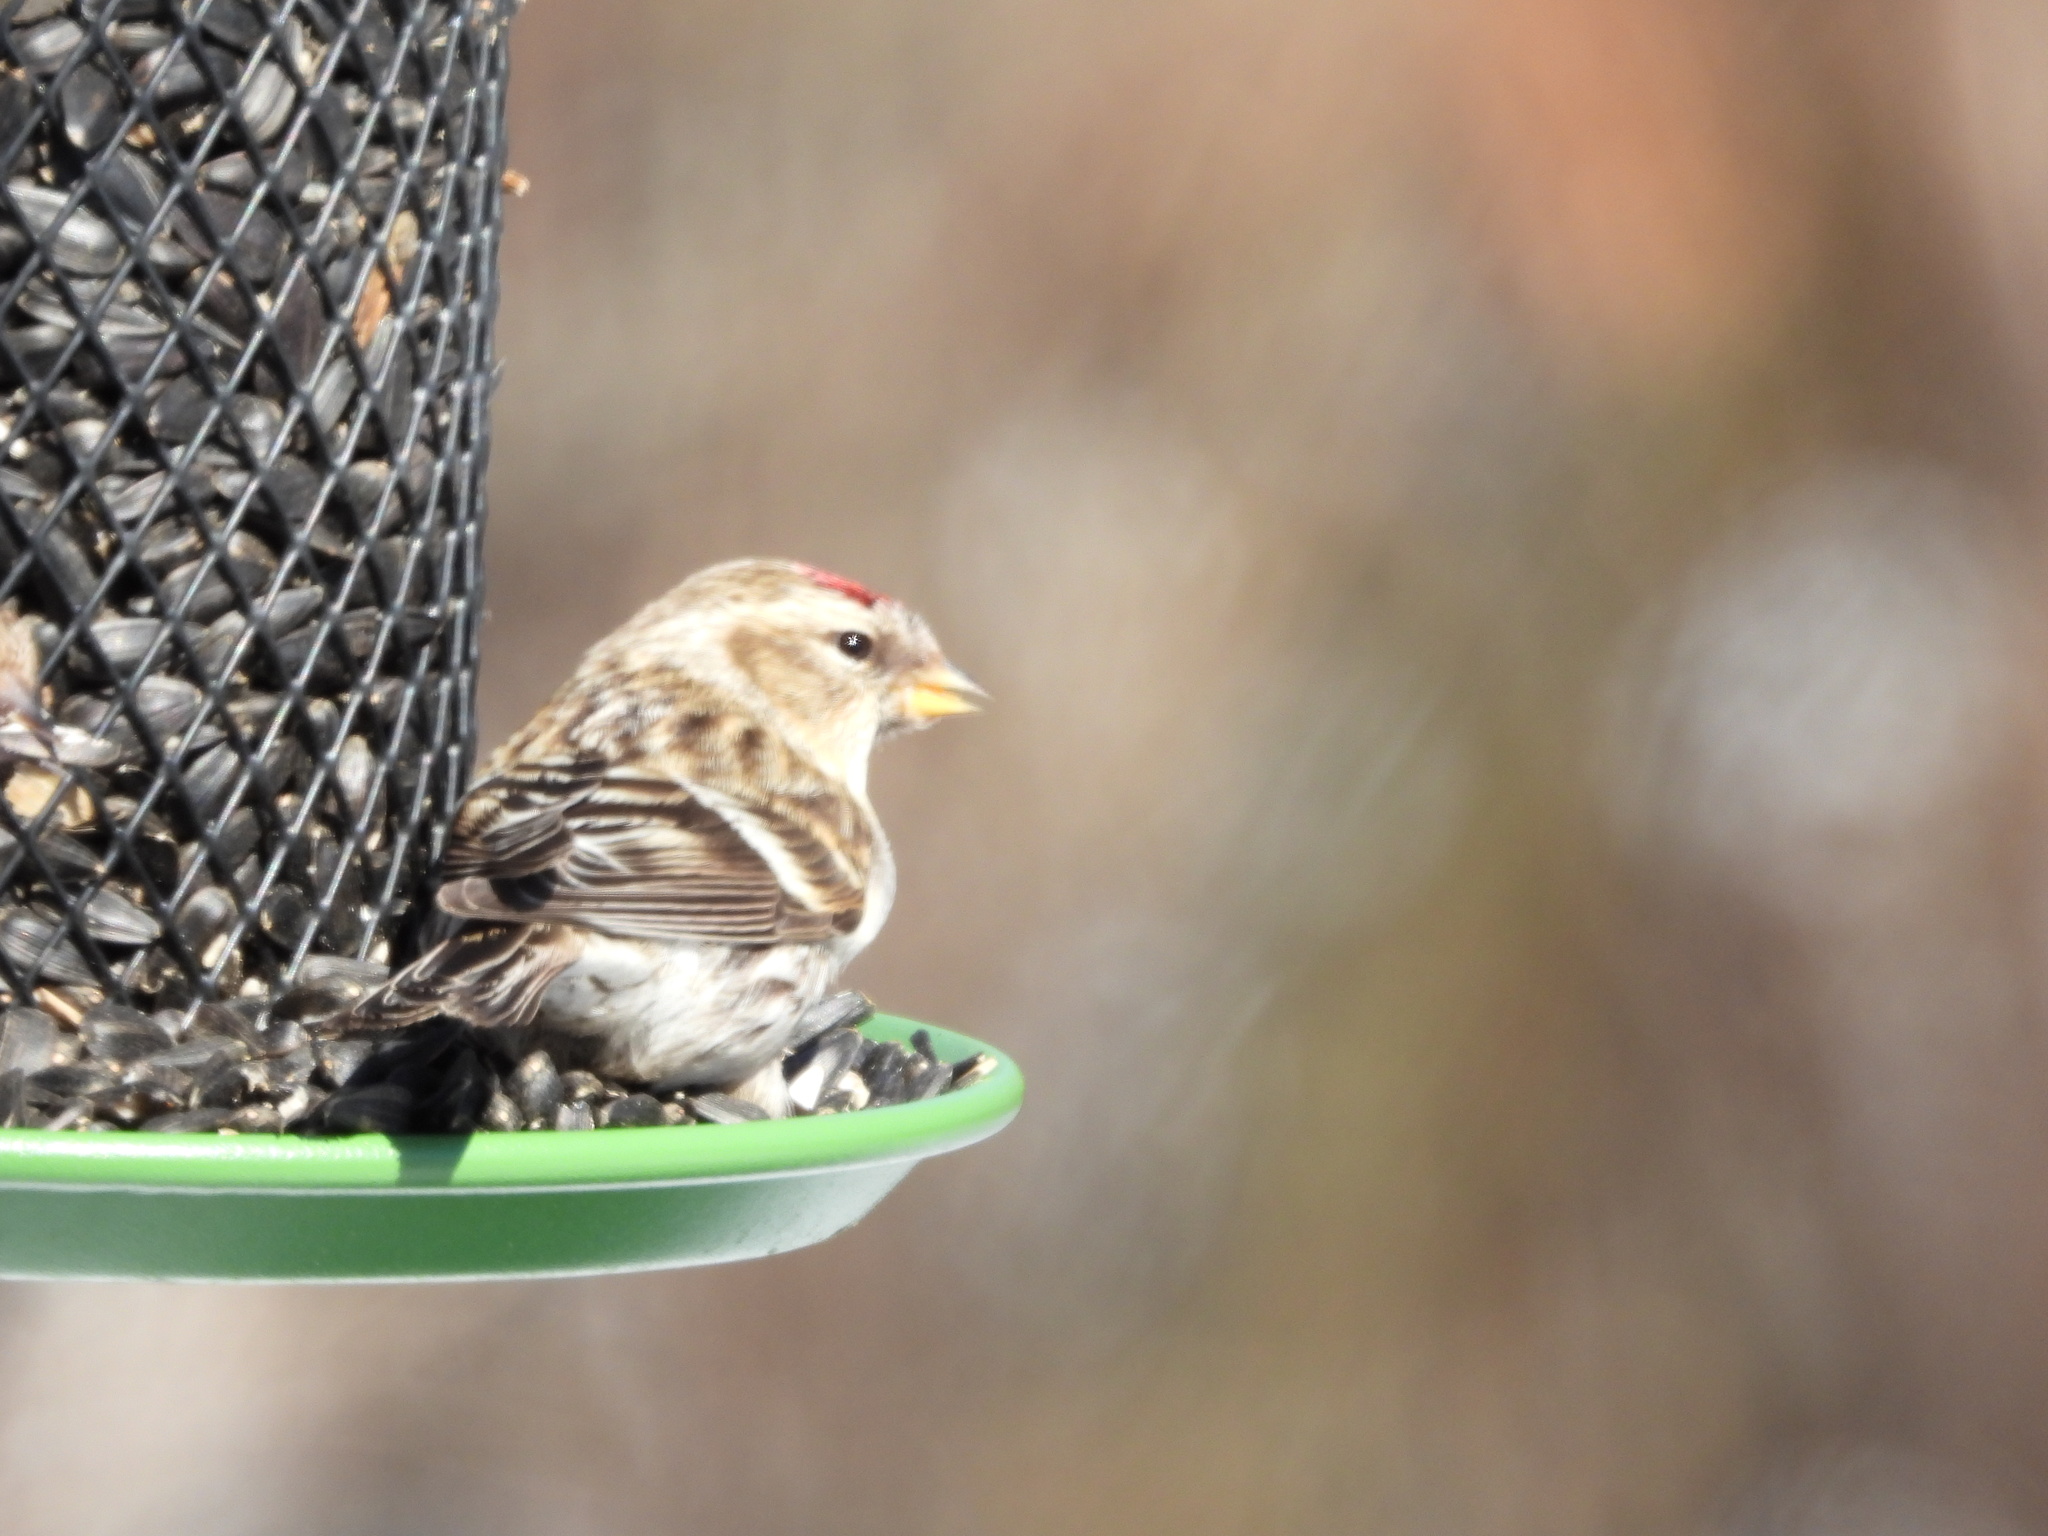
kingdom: Animalia
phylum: Chordata
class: Aves
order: Passeriformes
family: Fringillidae
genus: Acanthis
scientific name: Acanthis flammea
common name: Common redpoll
